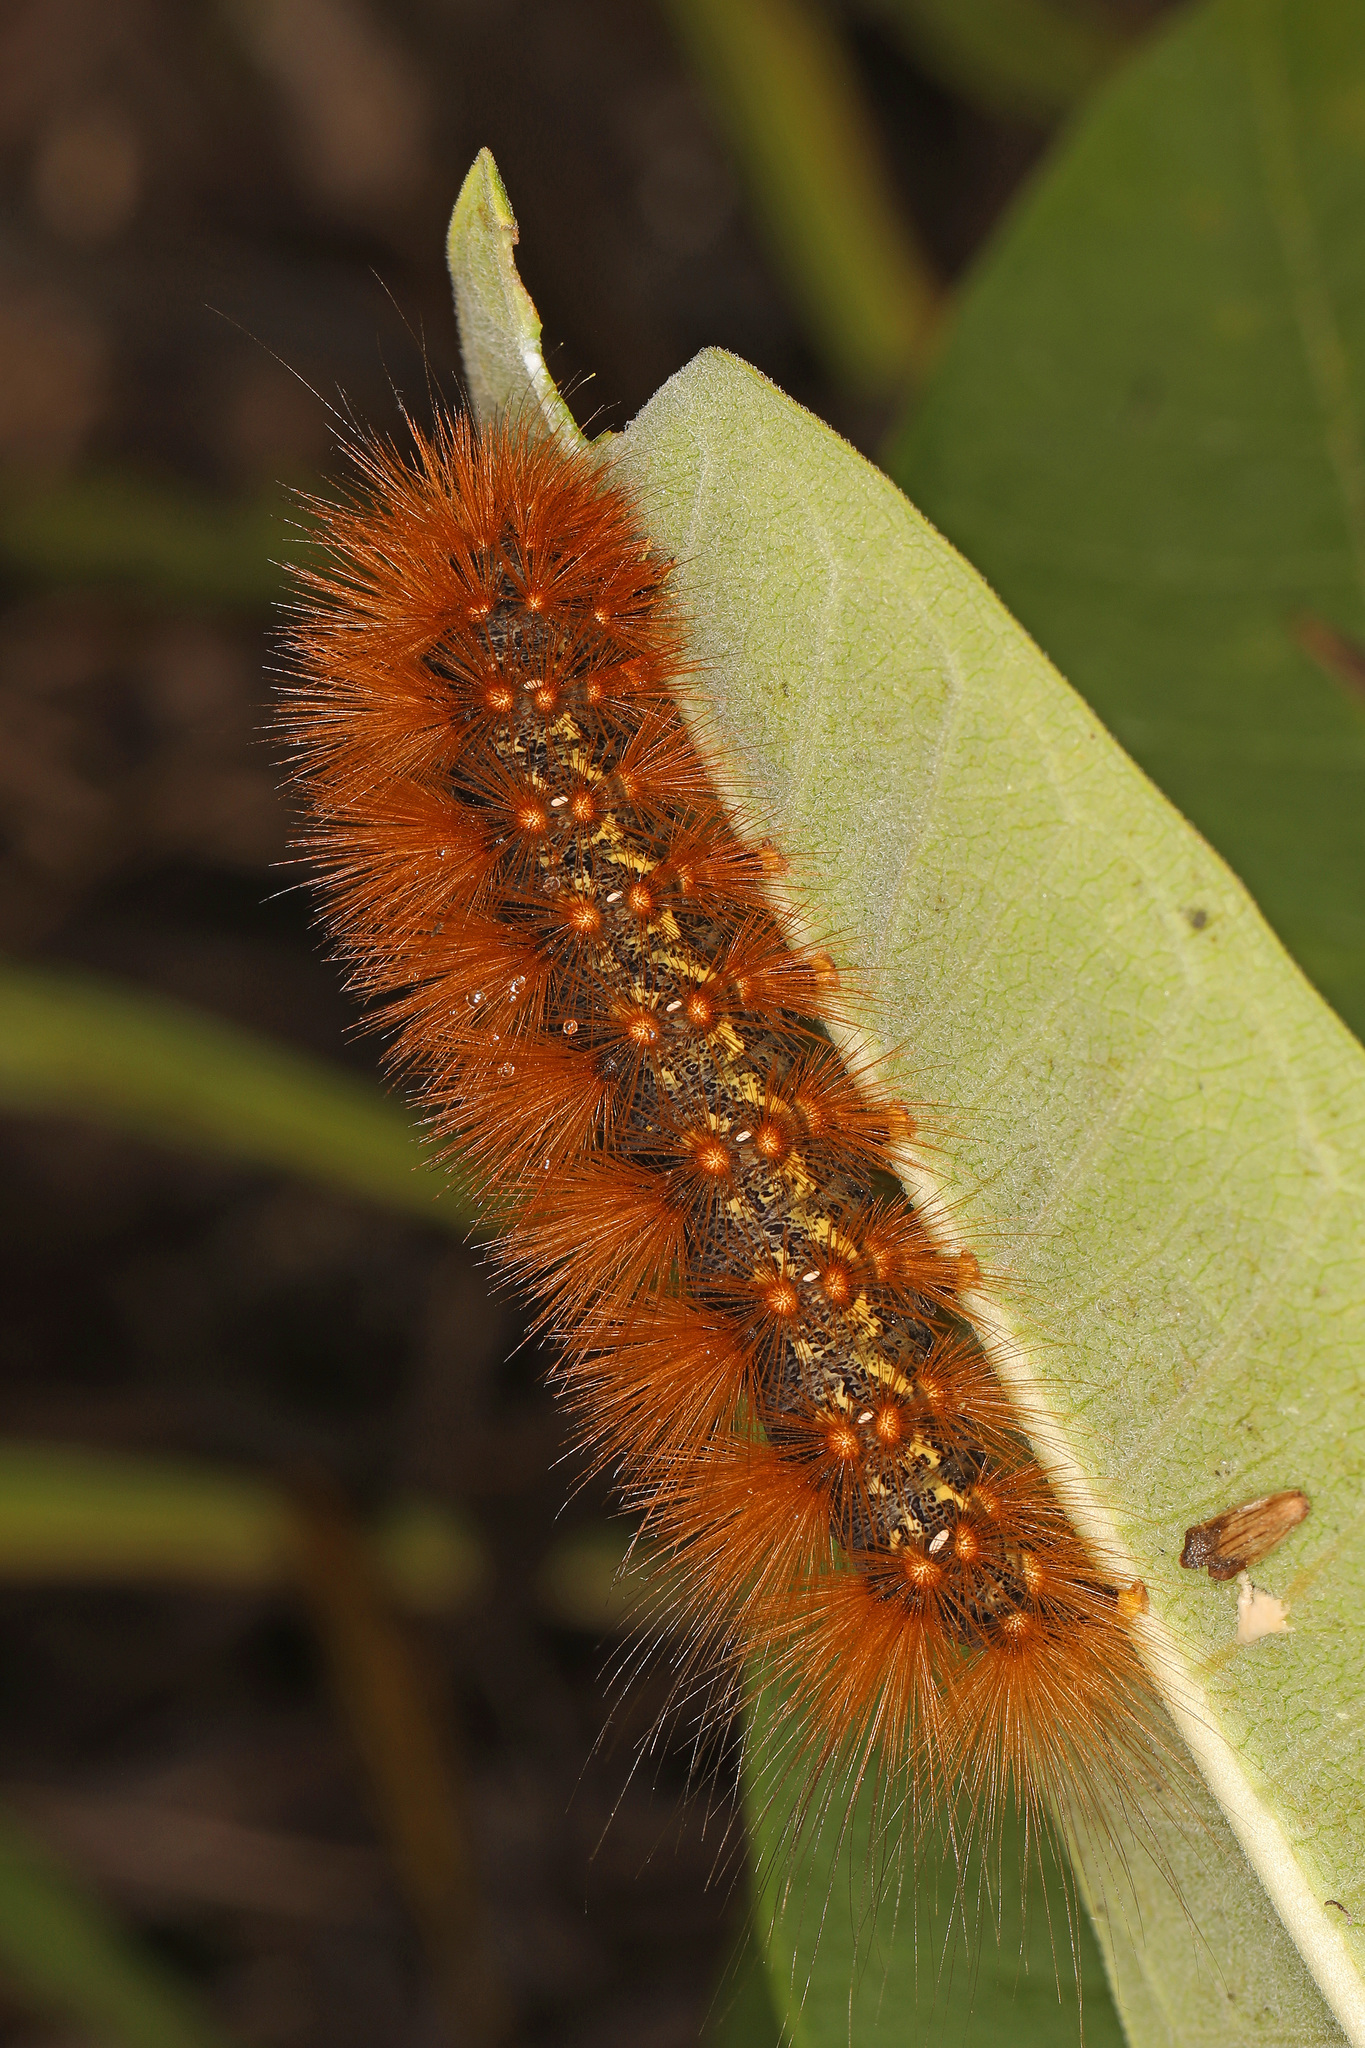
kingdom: Animalia
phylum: Arthropoda
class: Insecta
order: Lepidoptera
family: Erebidae
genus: Estigmene
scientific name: Estigmene acrea
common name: Salt marsh moth
